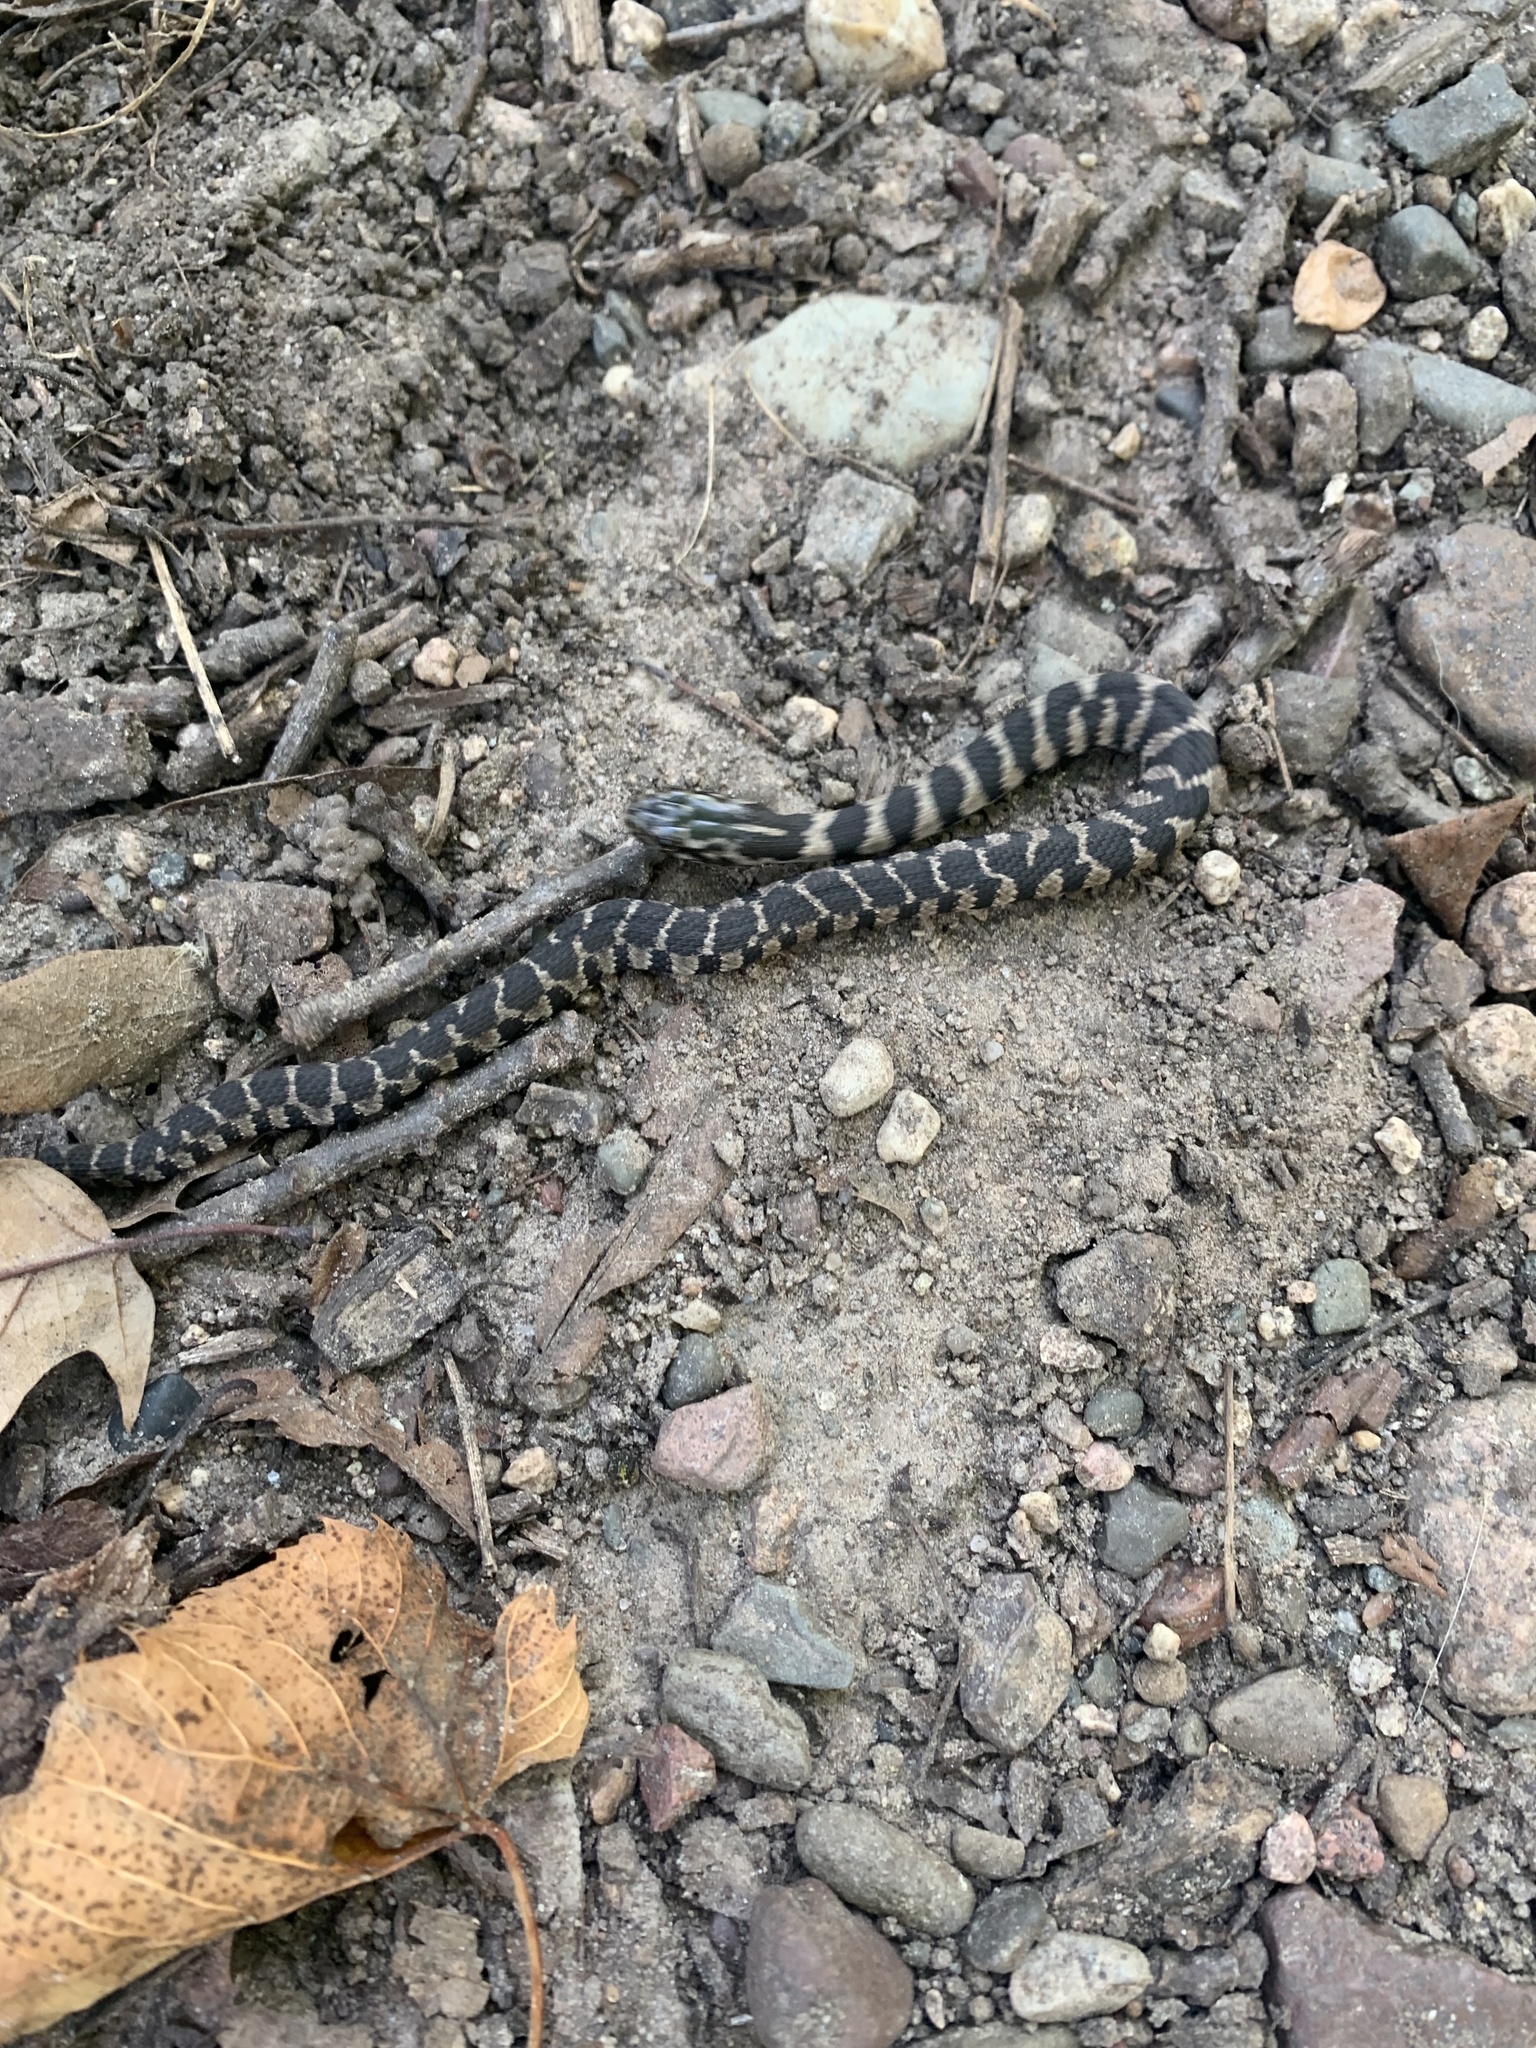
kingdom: Animalia
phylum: Chordata
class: Squamata
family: Colubridae
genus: Nerodia
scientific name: Nerodia sipedon
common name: Northern water snake
